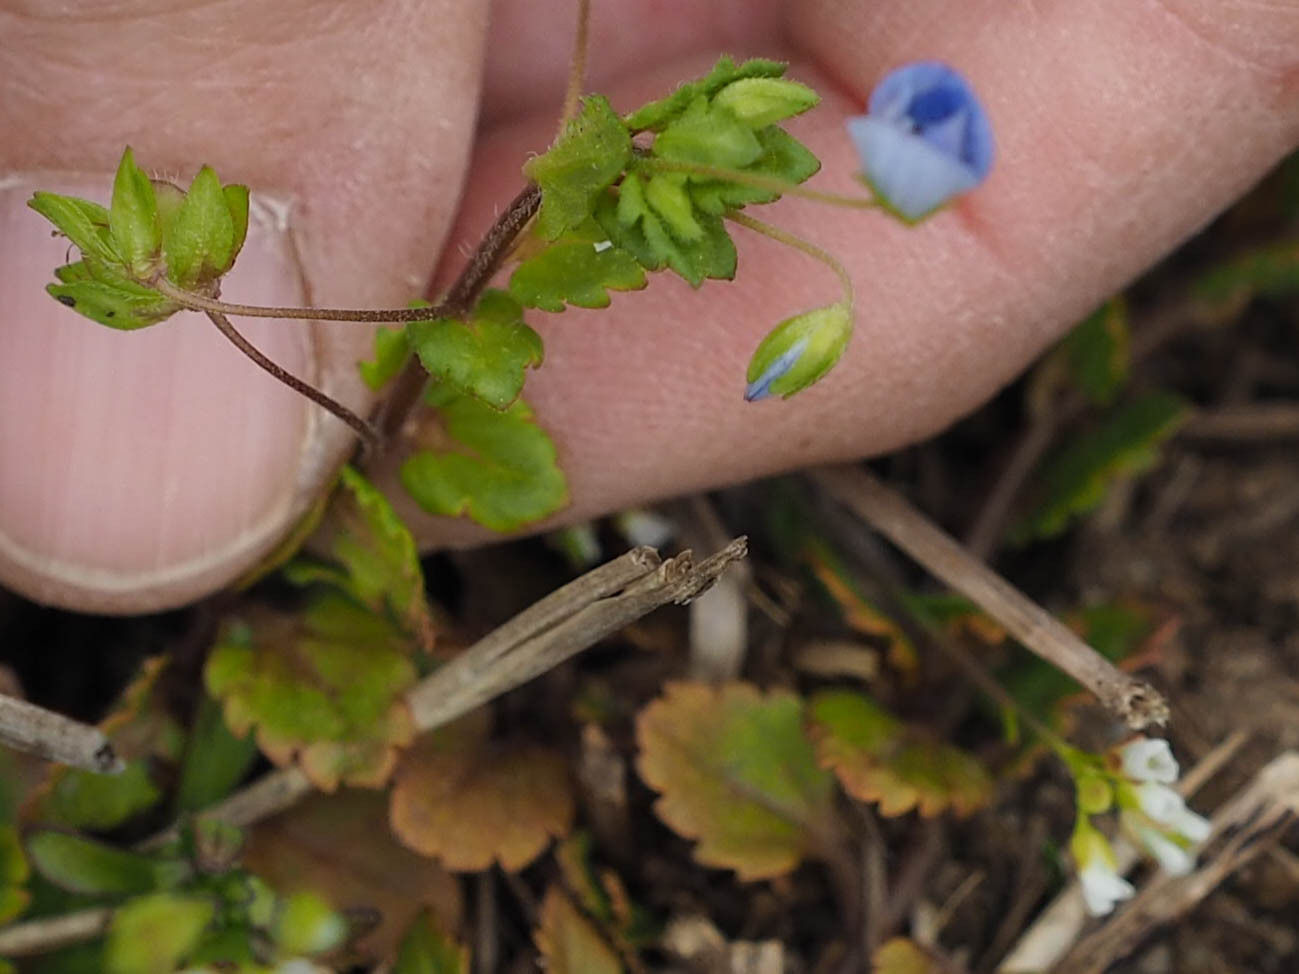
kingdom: Plantae
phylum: Tracheophyta
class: Magnoliopsida
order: Lamiales
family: Plantaginaceae
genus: Veronica
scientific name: Veronica persica
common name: Common field-speedwell
